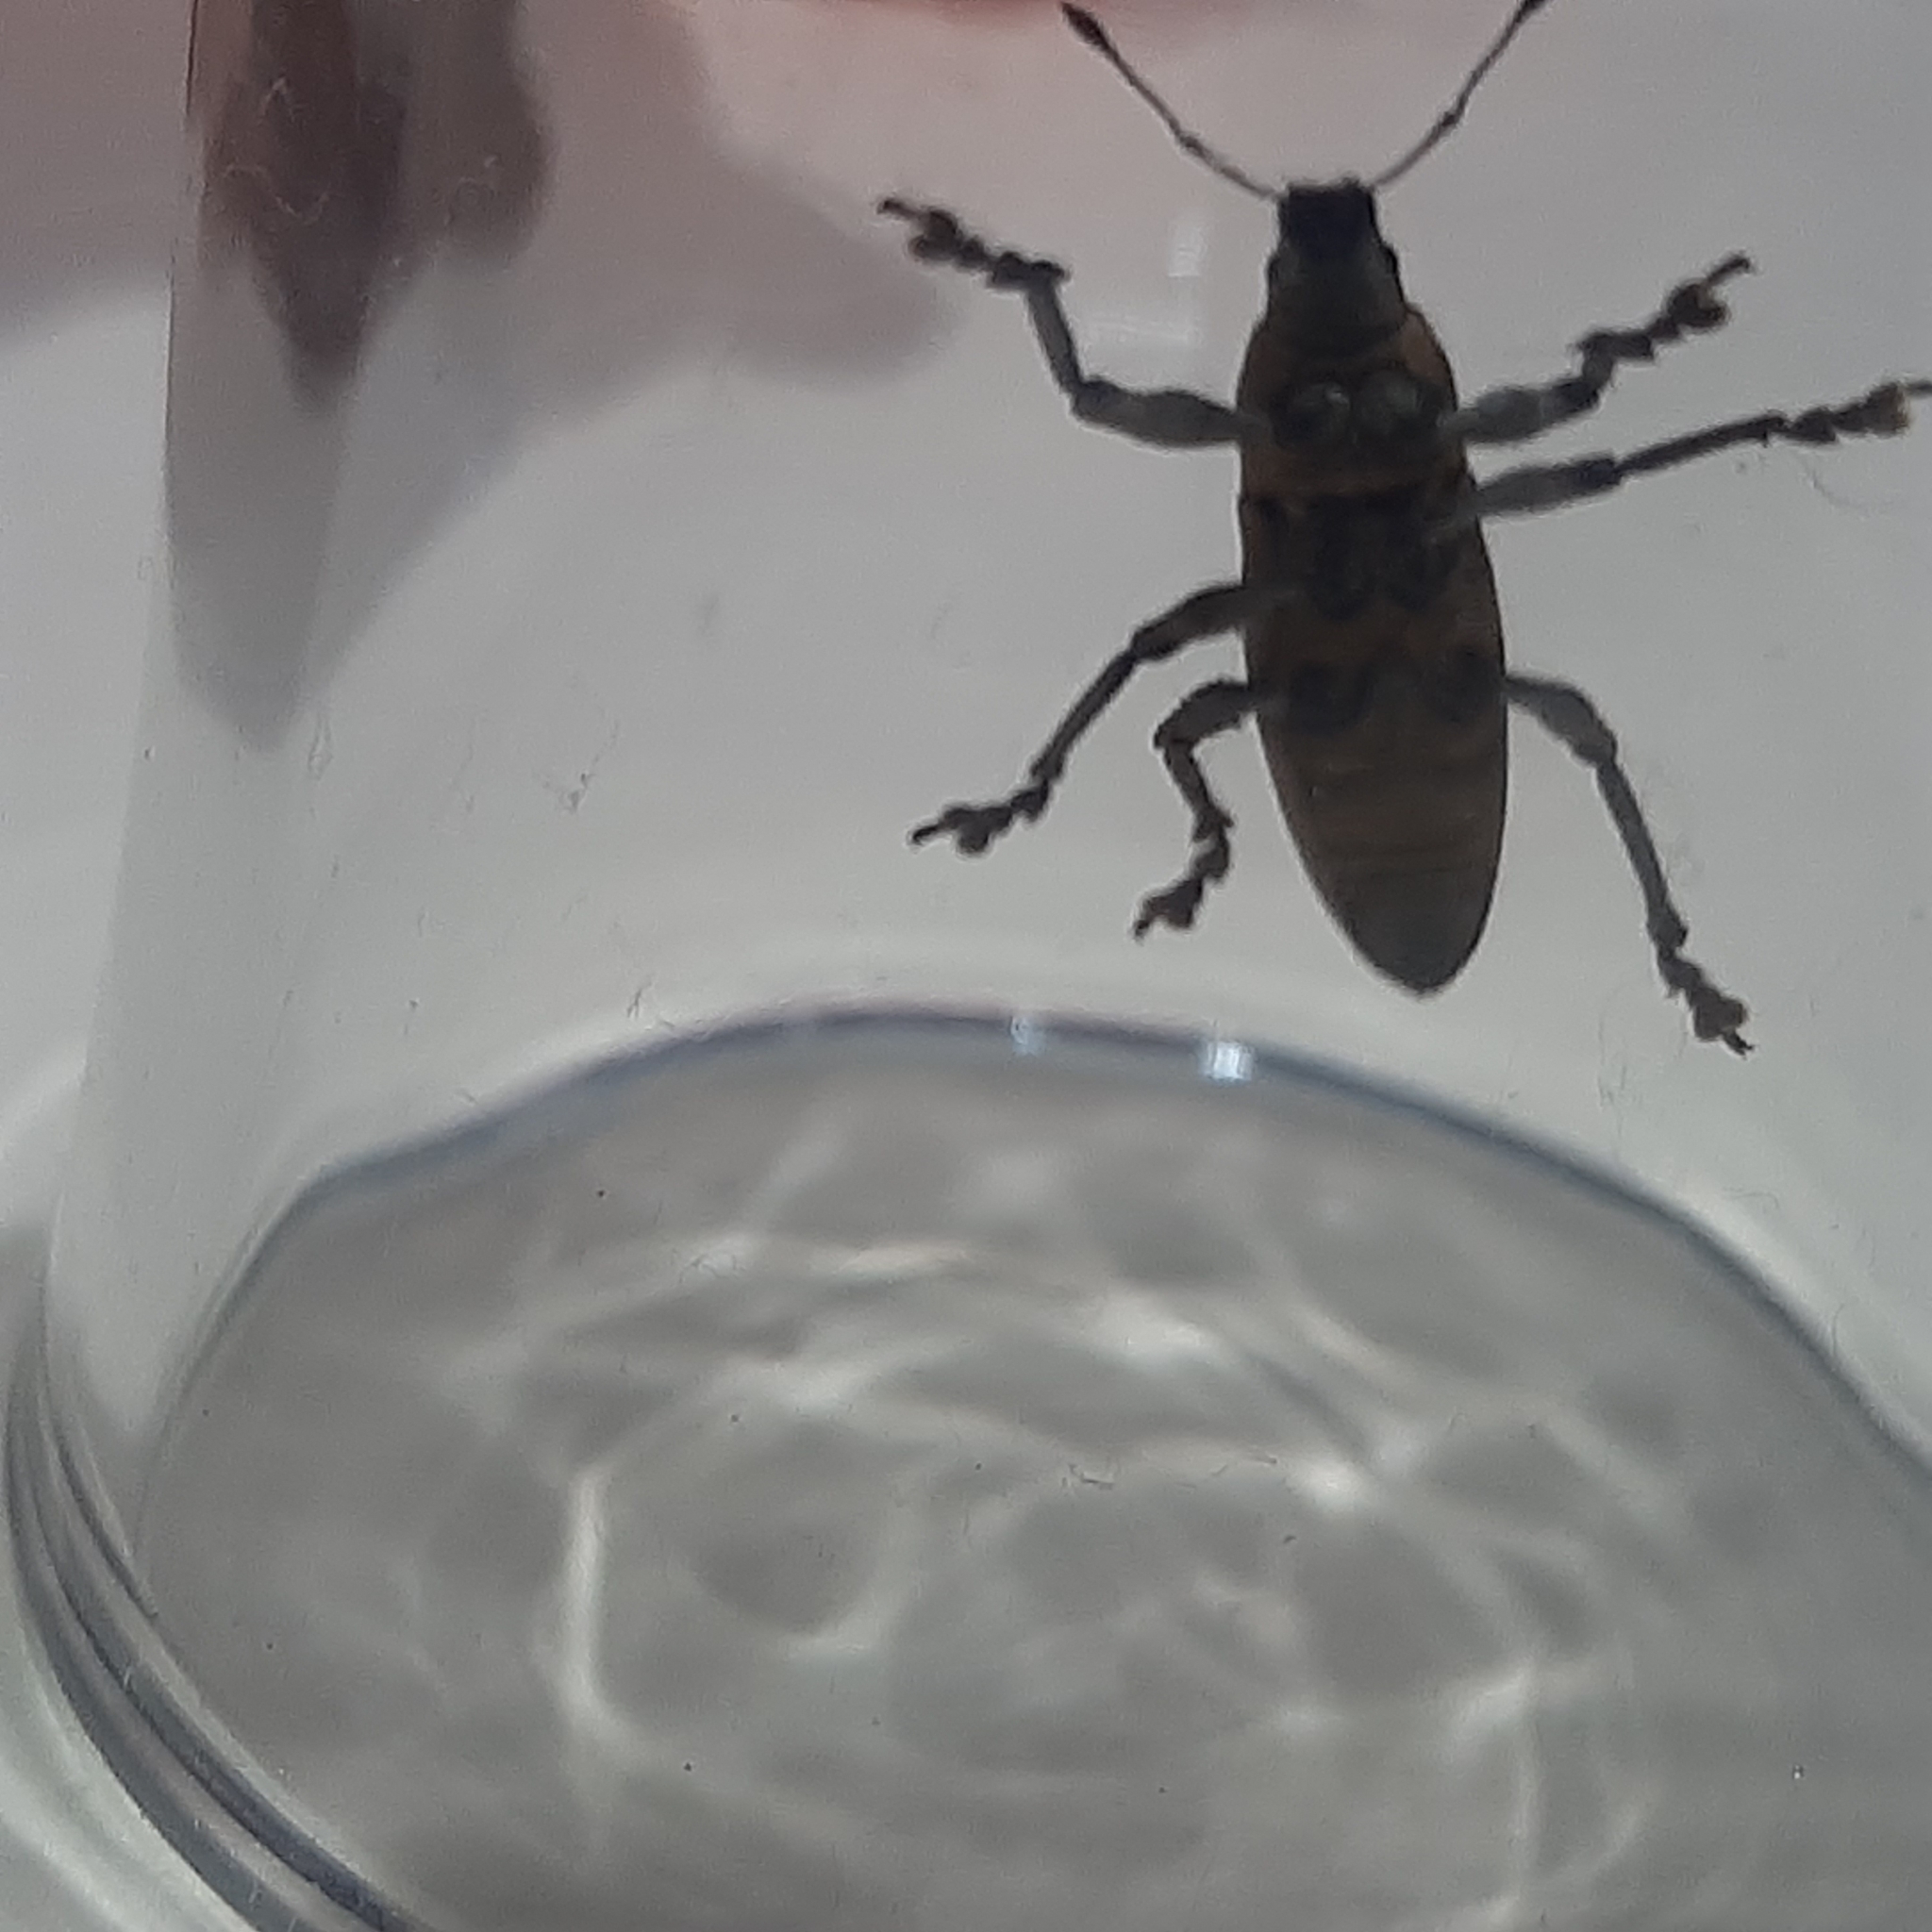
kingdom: Animalia
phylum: Arthropoda
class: Insecta
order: Coleoptera
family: Curculionidae
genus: Cleistolophus
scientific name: Cleistolophus similis
